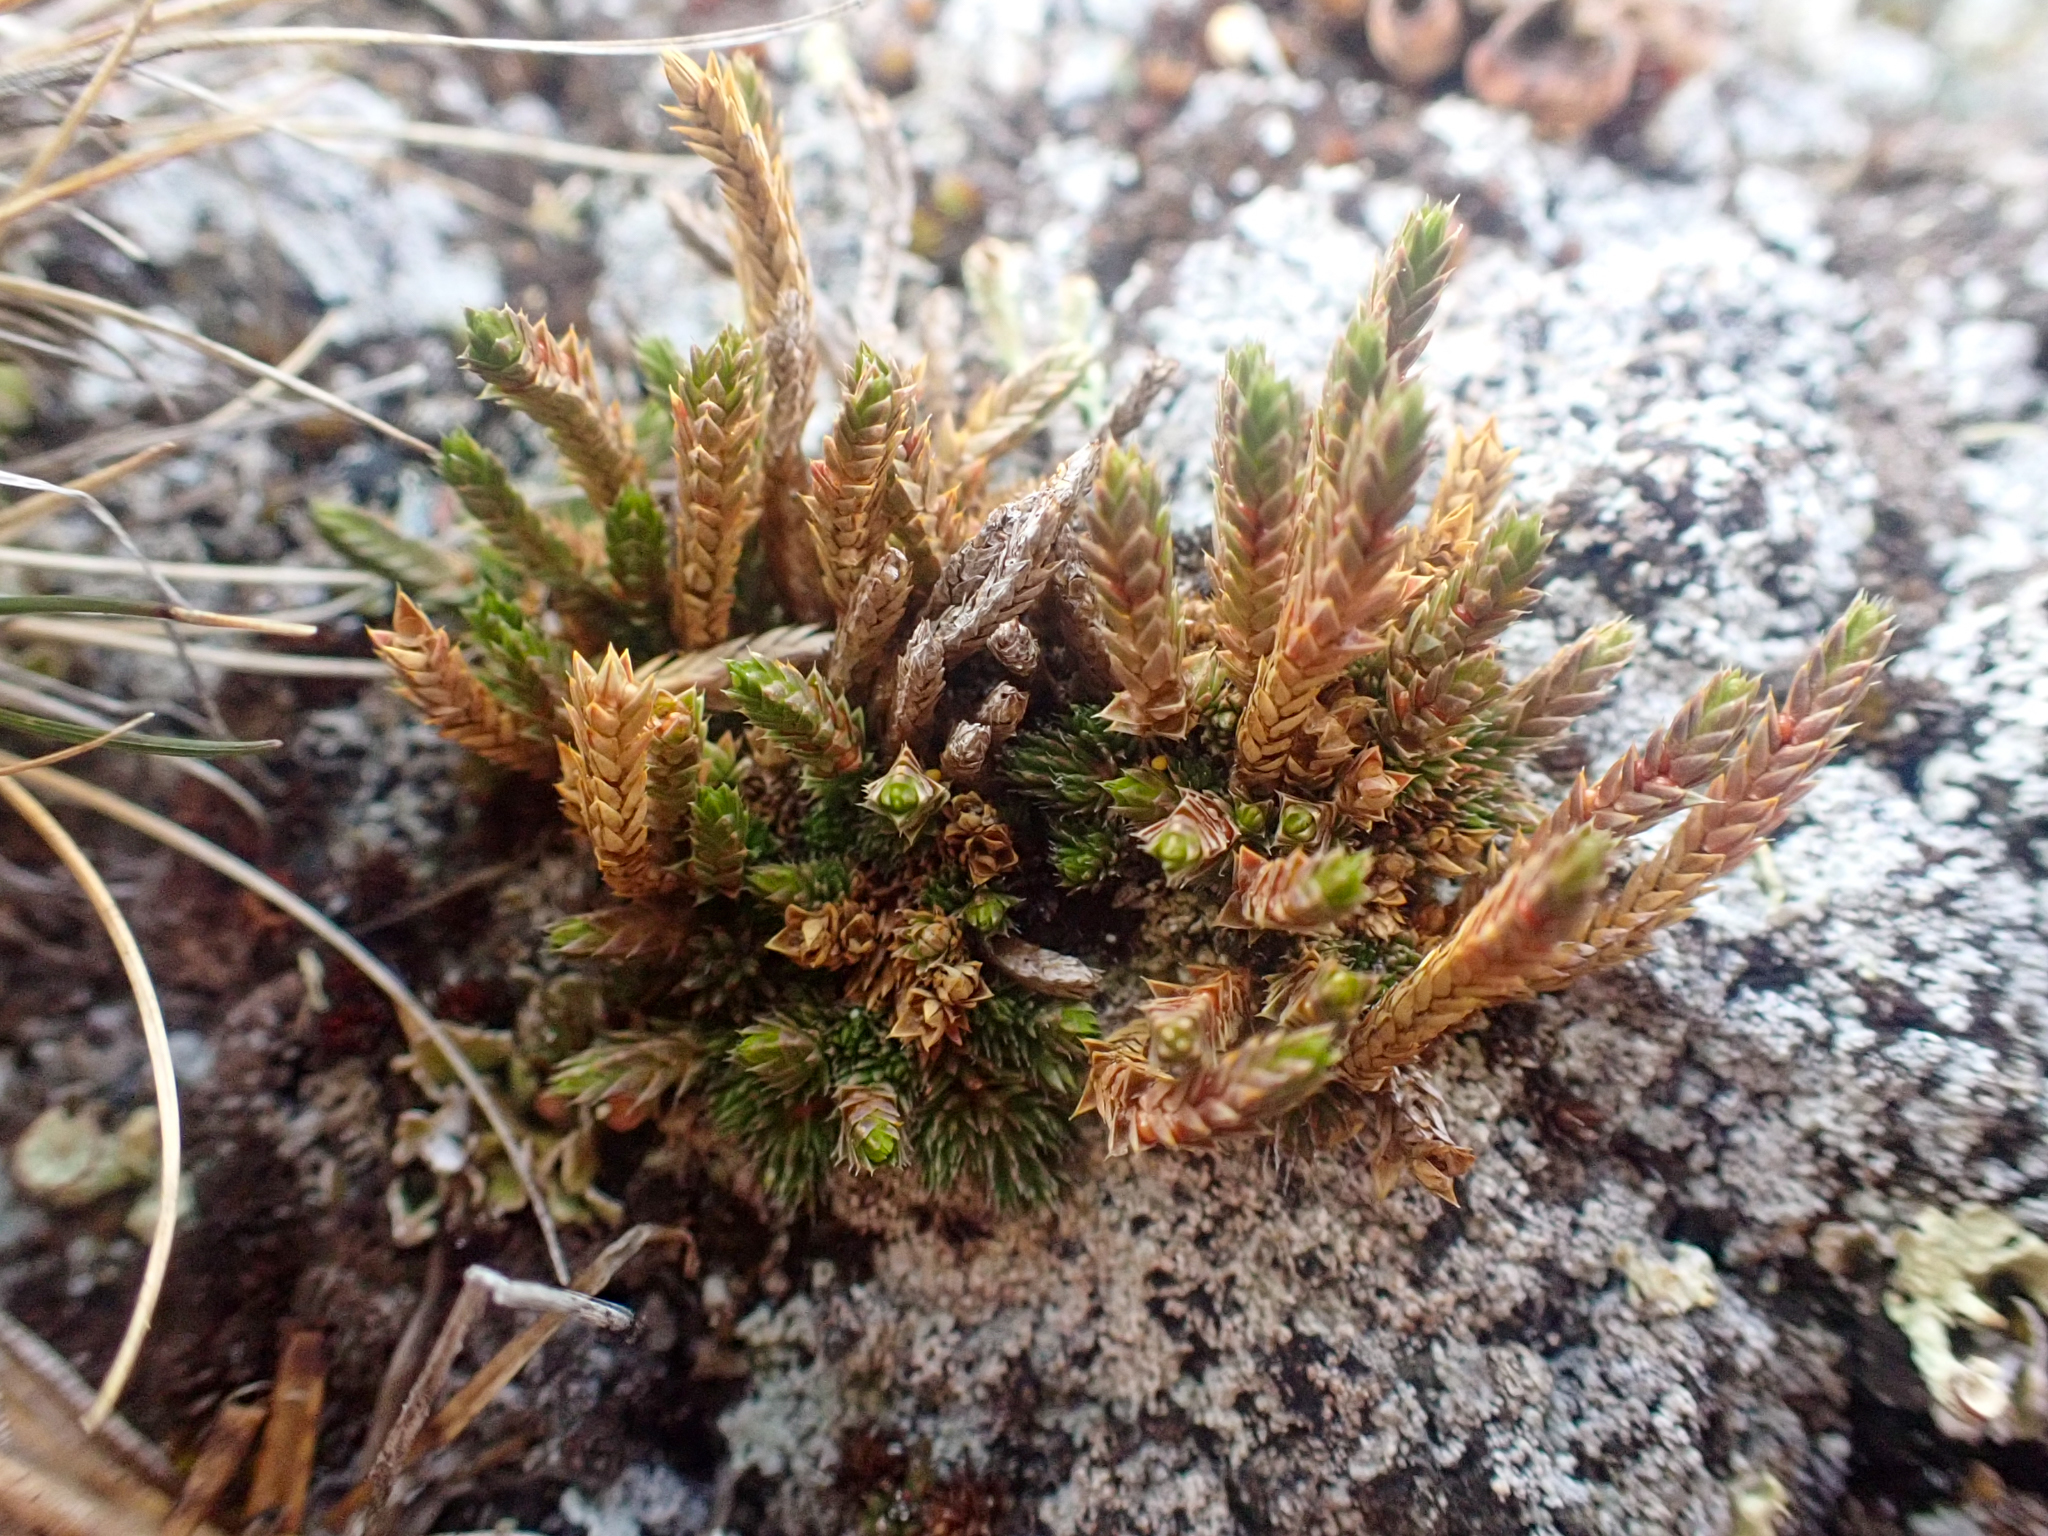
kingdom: Plantae
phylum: Tracheophyta
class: Lycopodiopsida
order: Selaginellales
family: Selaginellaceae
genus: Selaginella
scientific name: Selaginella densa
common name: Mountain spike-moss
